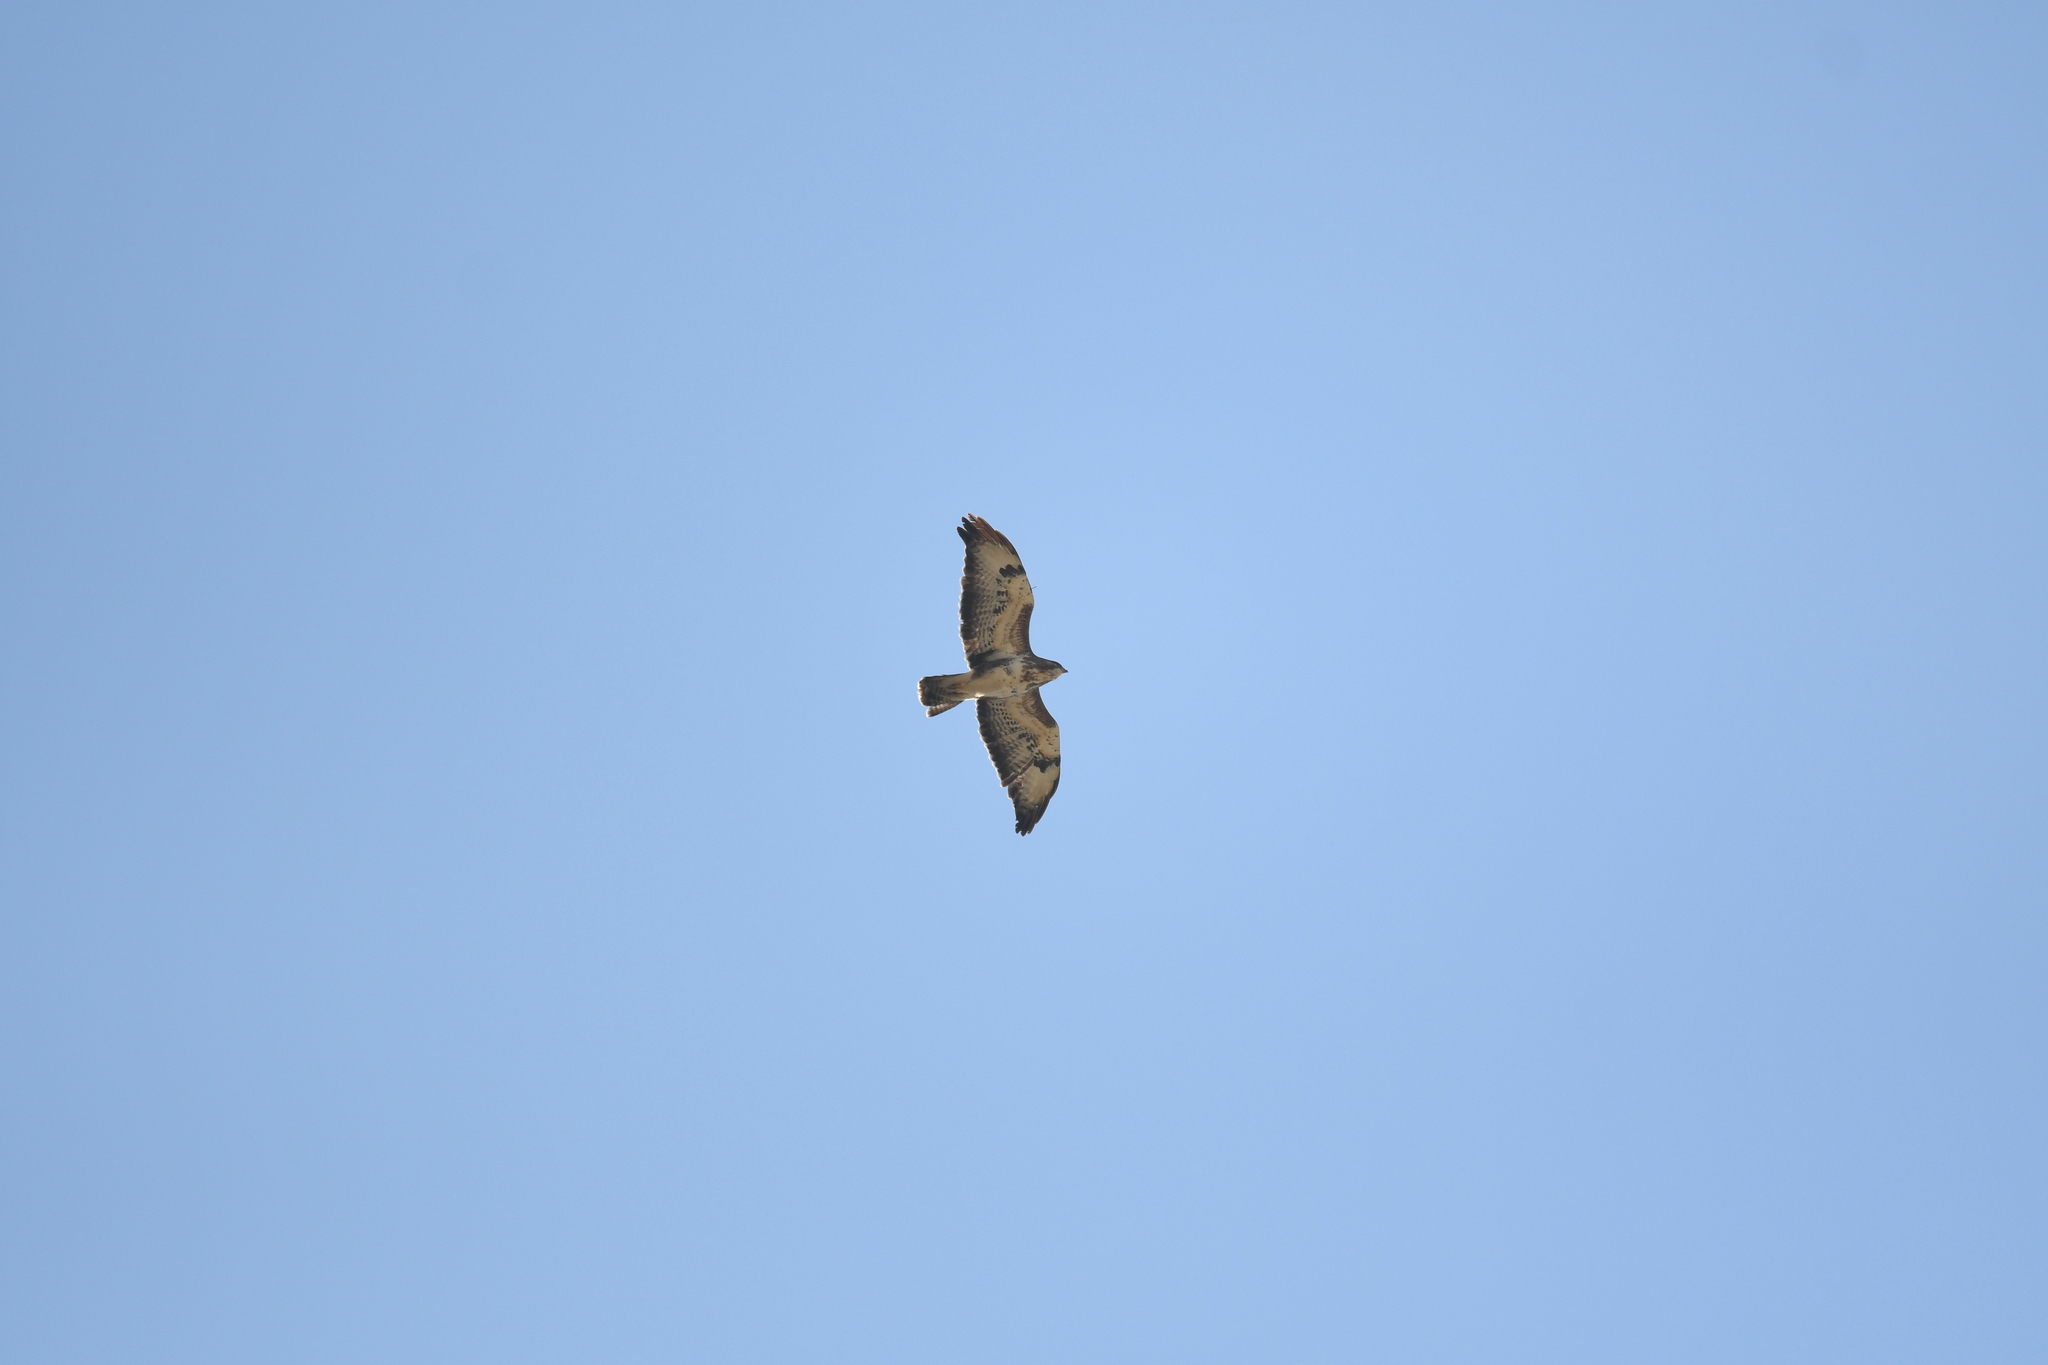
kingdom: Animalia
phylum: Chordata
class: Aves
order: Accipitriformes
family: Accipitridae
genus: Buteo
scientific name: Buteo buteo
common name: Common buzzard
